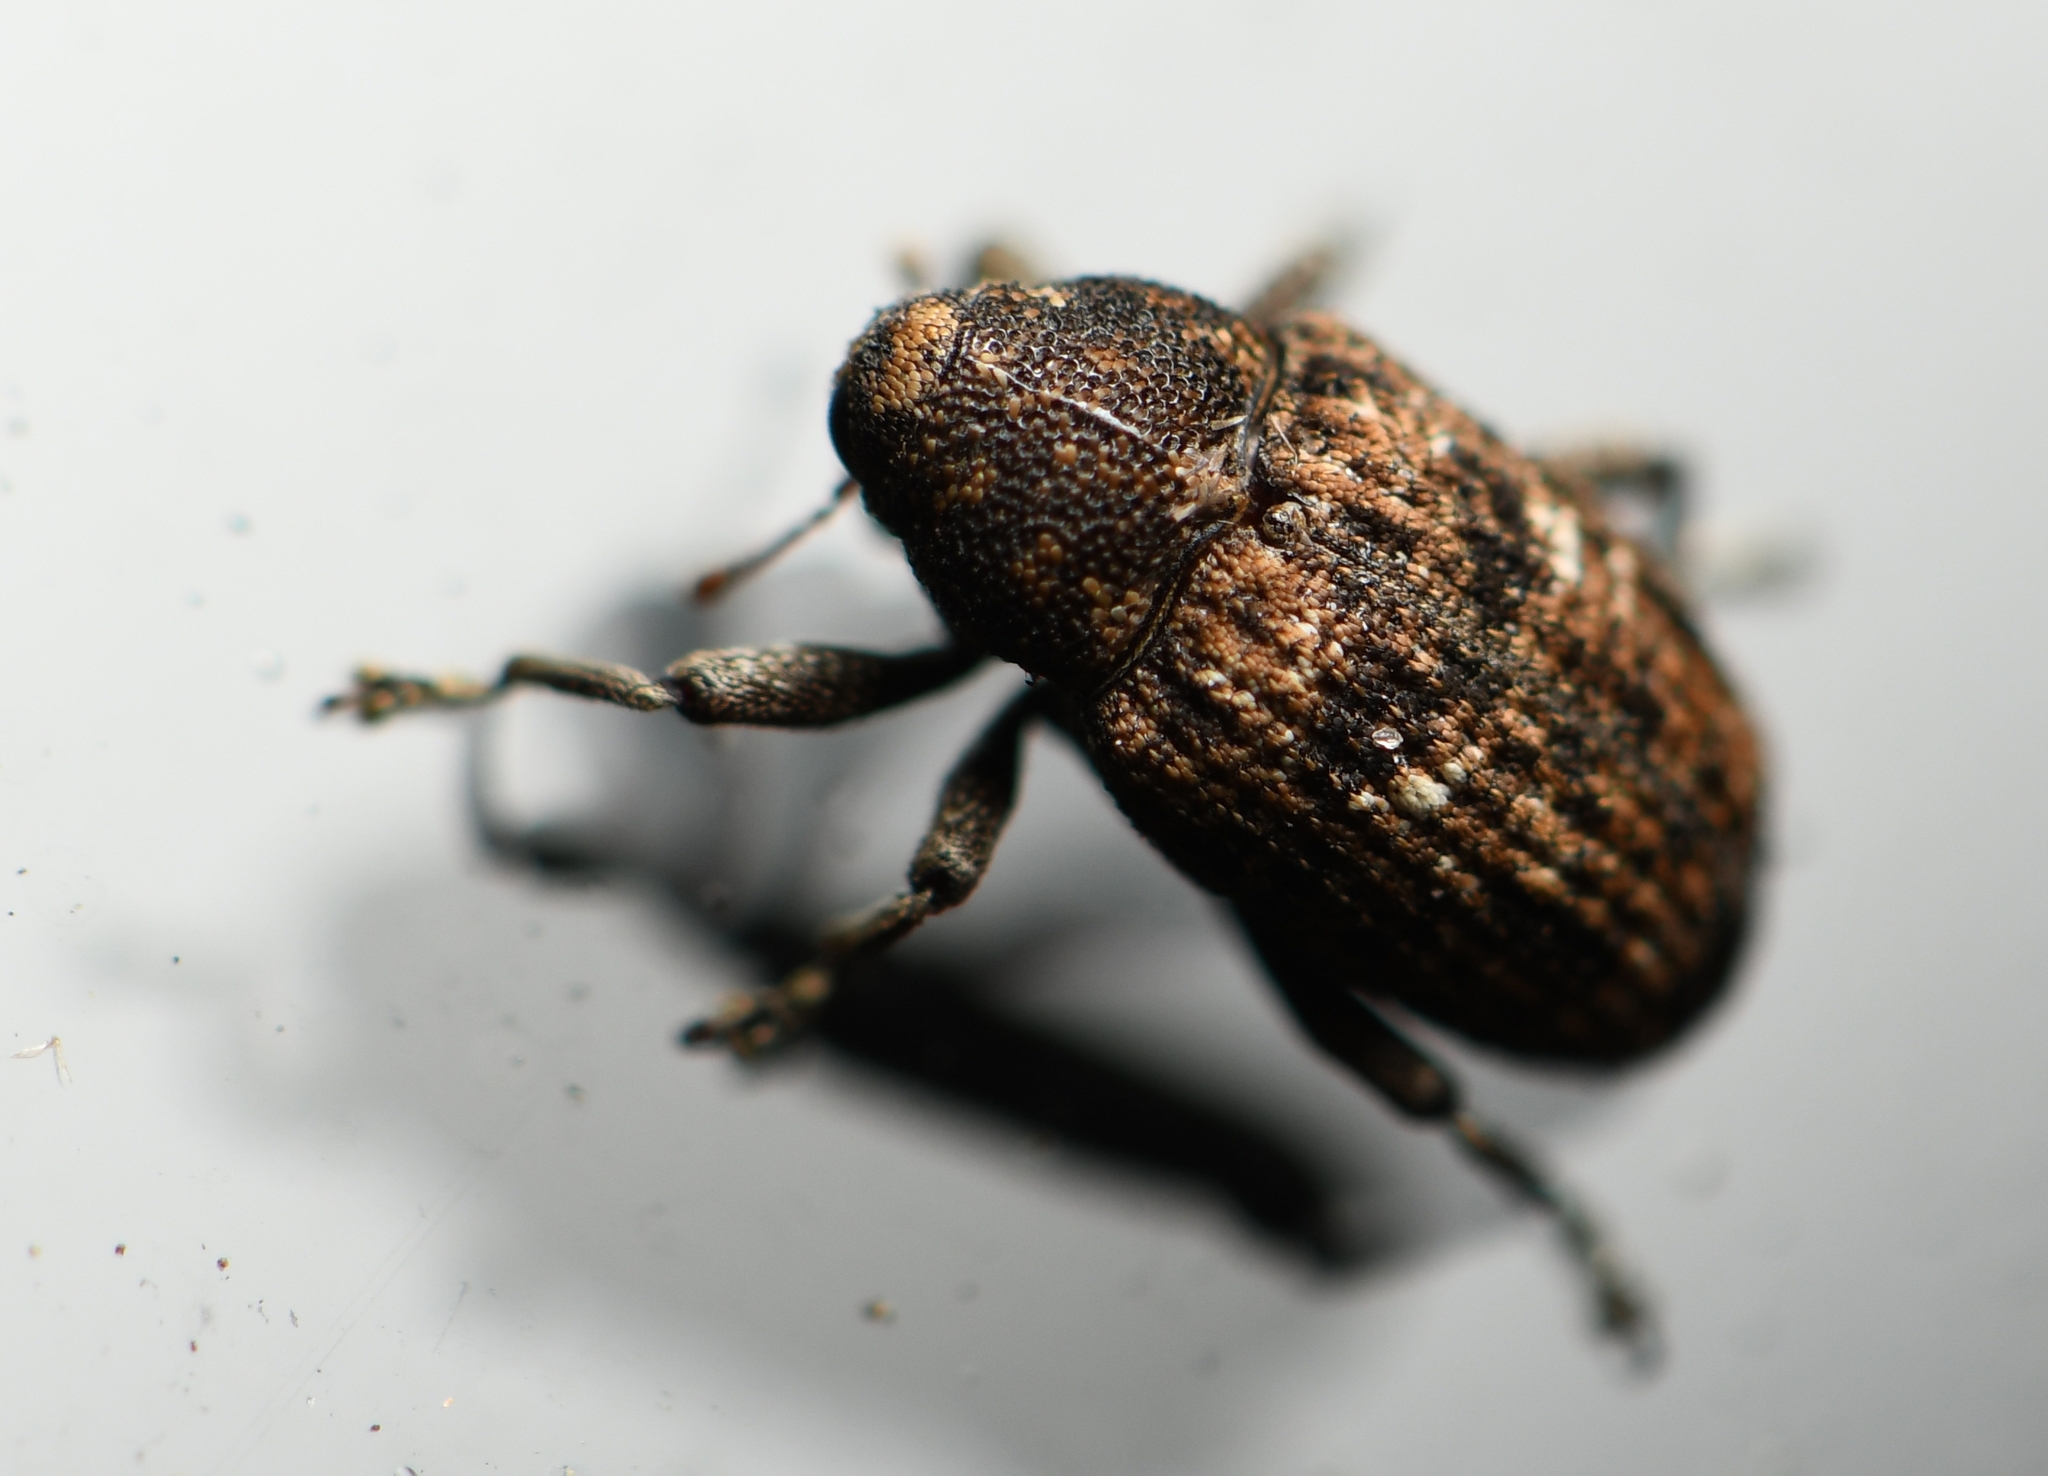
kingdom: Animalia
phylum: Arthropoda
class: Insecta
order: Coleoptera
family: Curculionidae
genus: Cophes
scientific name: Cophes oblongus
